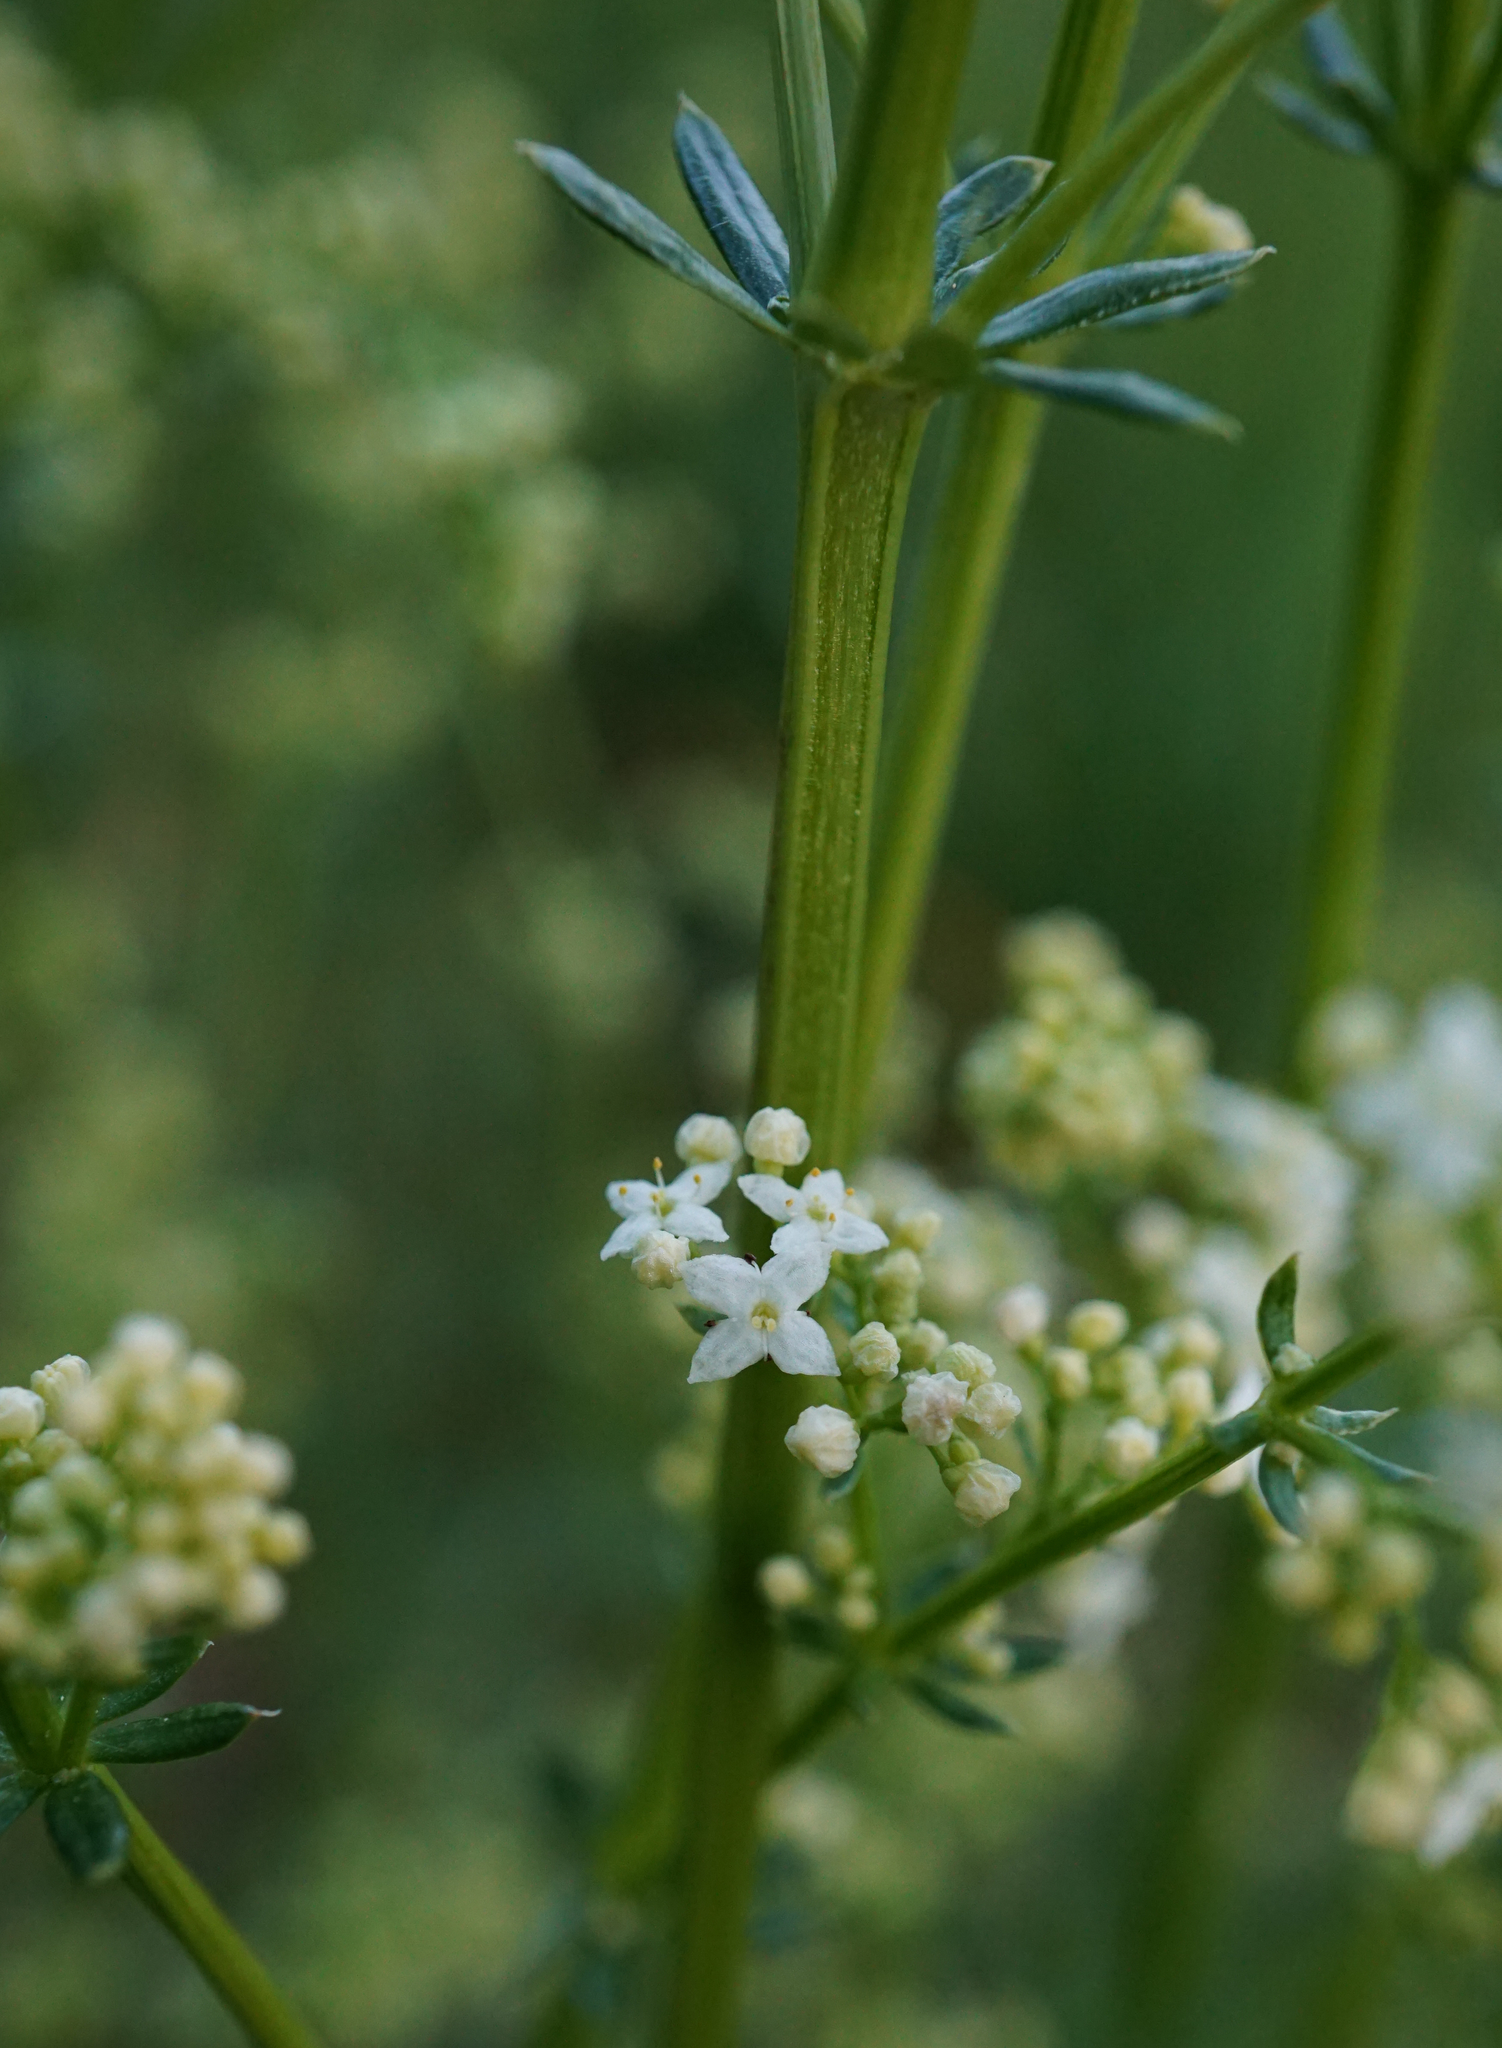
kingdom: Plantae
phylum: Tracheophyta
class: Magnoliopsida
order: Gentianales
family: Rubiaceae
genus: Galium
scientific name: Galium album
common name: White bedstraw
